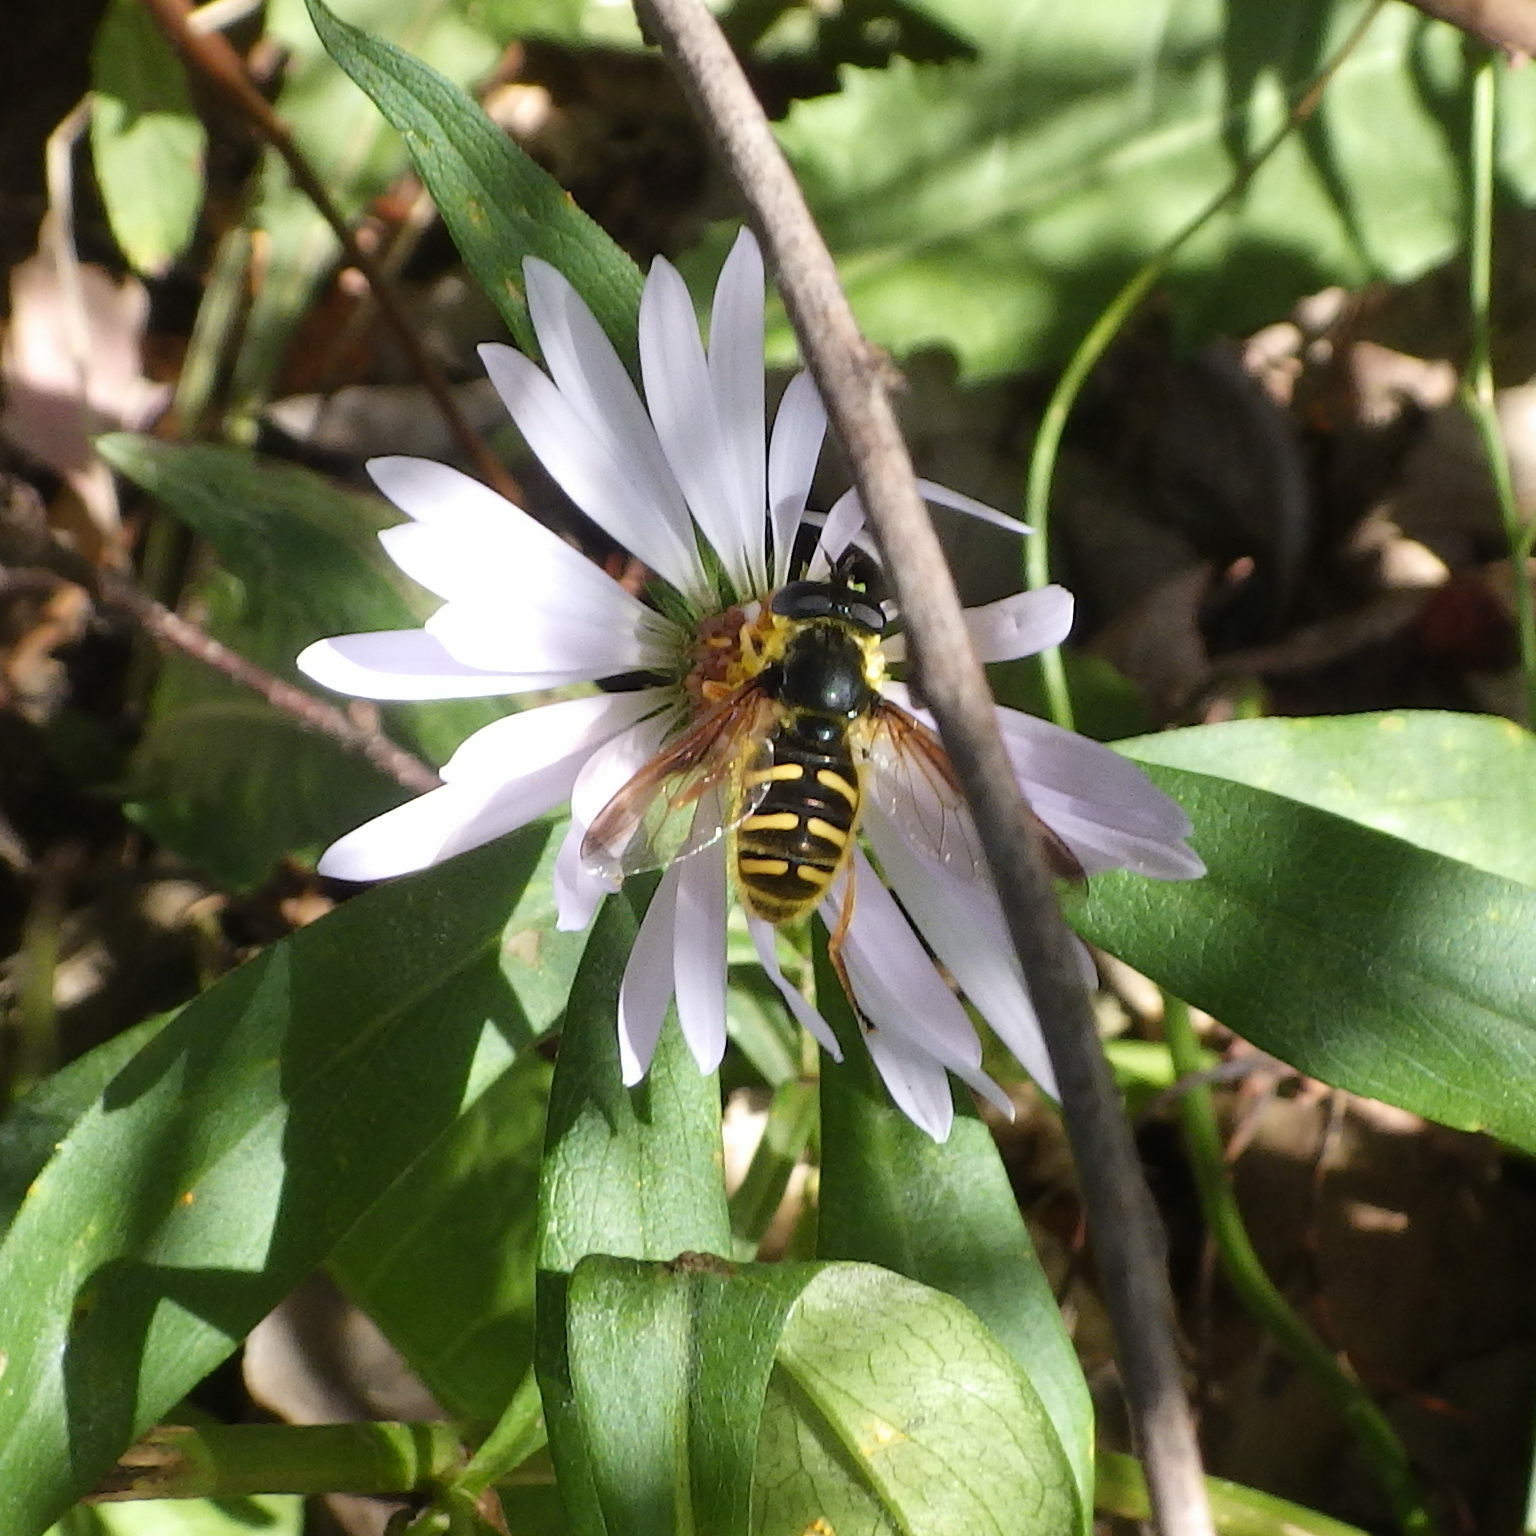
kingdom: Animalia
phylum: Arthropoda
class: Insecta
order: Diptera
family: Syrphidae
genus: Sericomyia
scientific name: Sericomyia chrysotoxoides
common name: Oblique-banded pond fly
